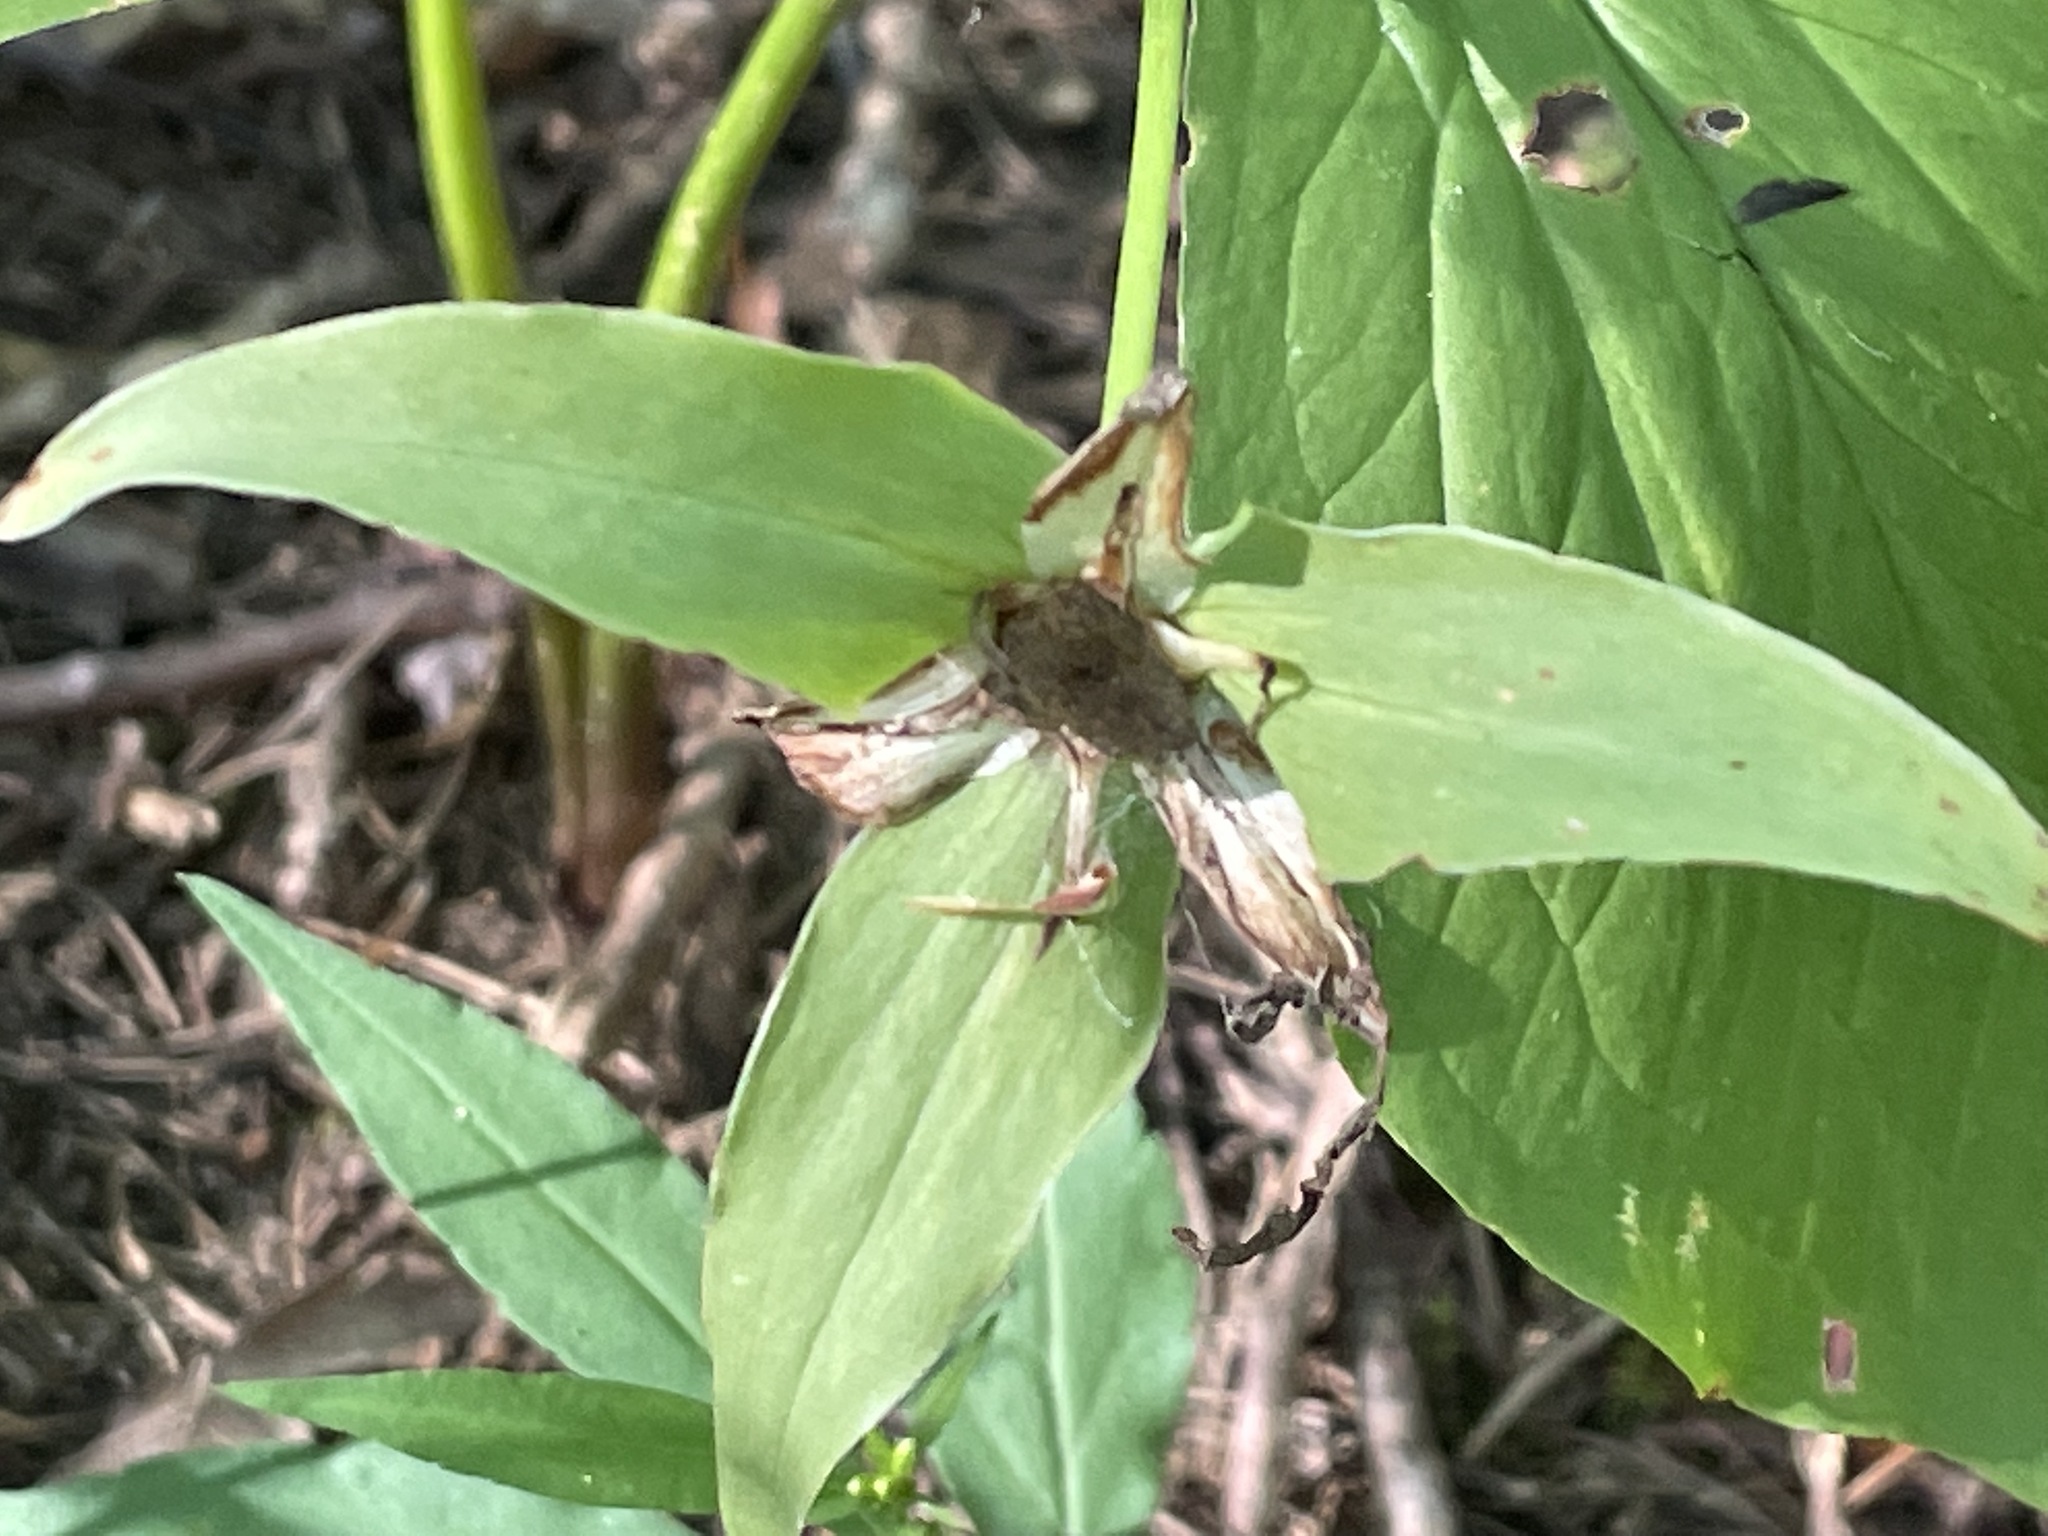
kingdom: Plantae
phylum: Tracheophyta
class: Liliopsida
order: Liliales
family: Melanthiaceae
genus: Trillium
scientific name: Trillium grandiflorum
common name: Great white trillium
